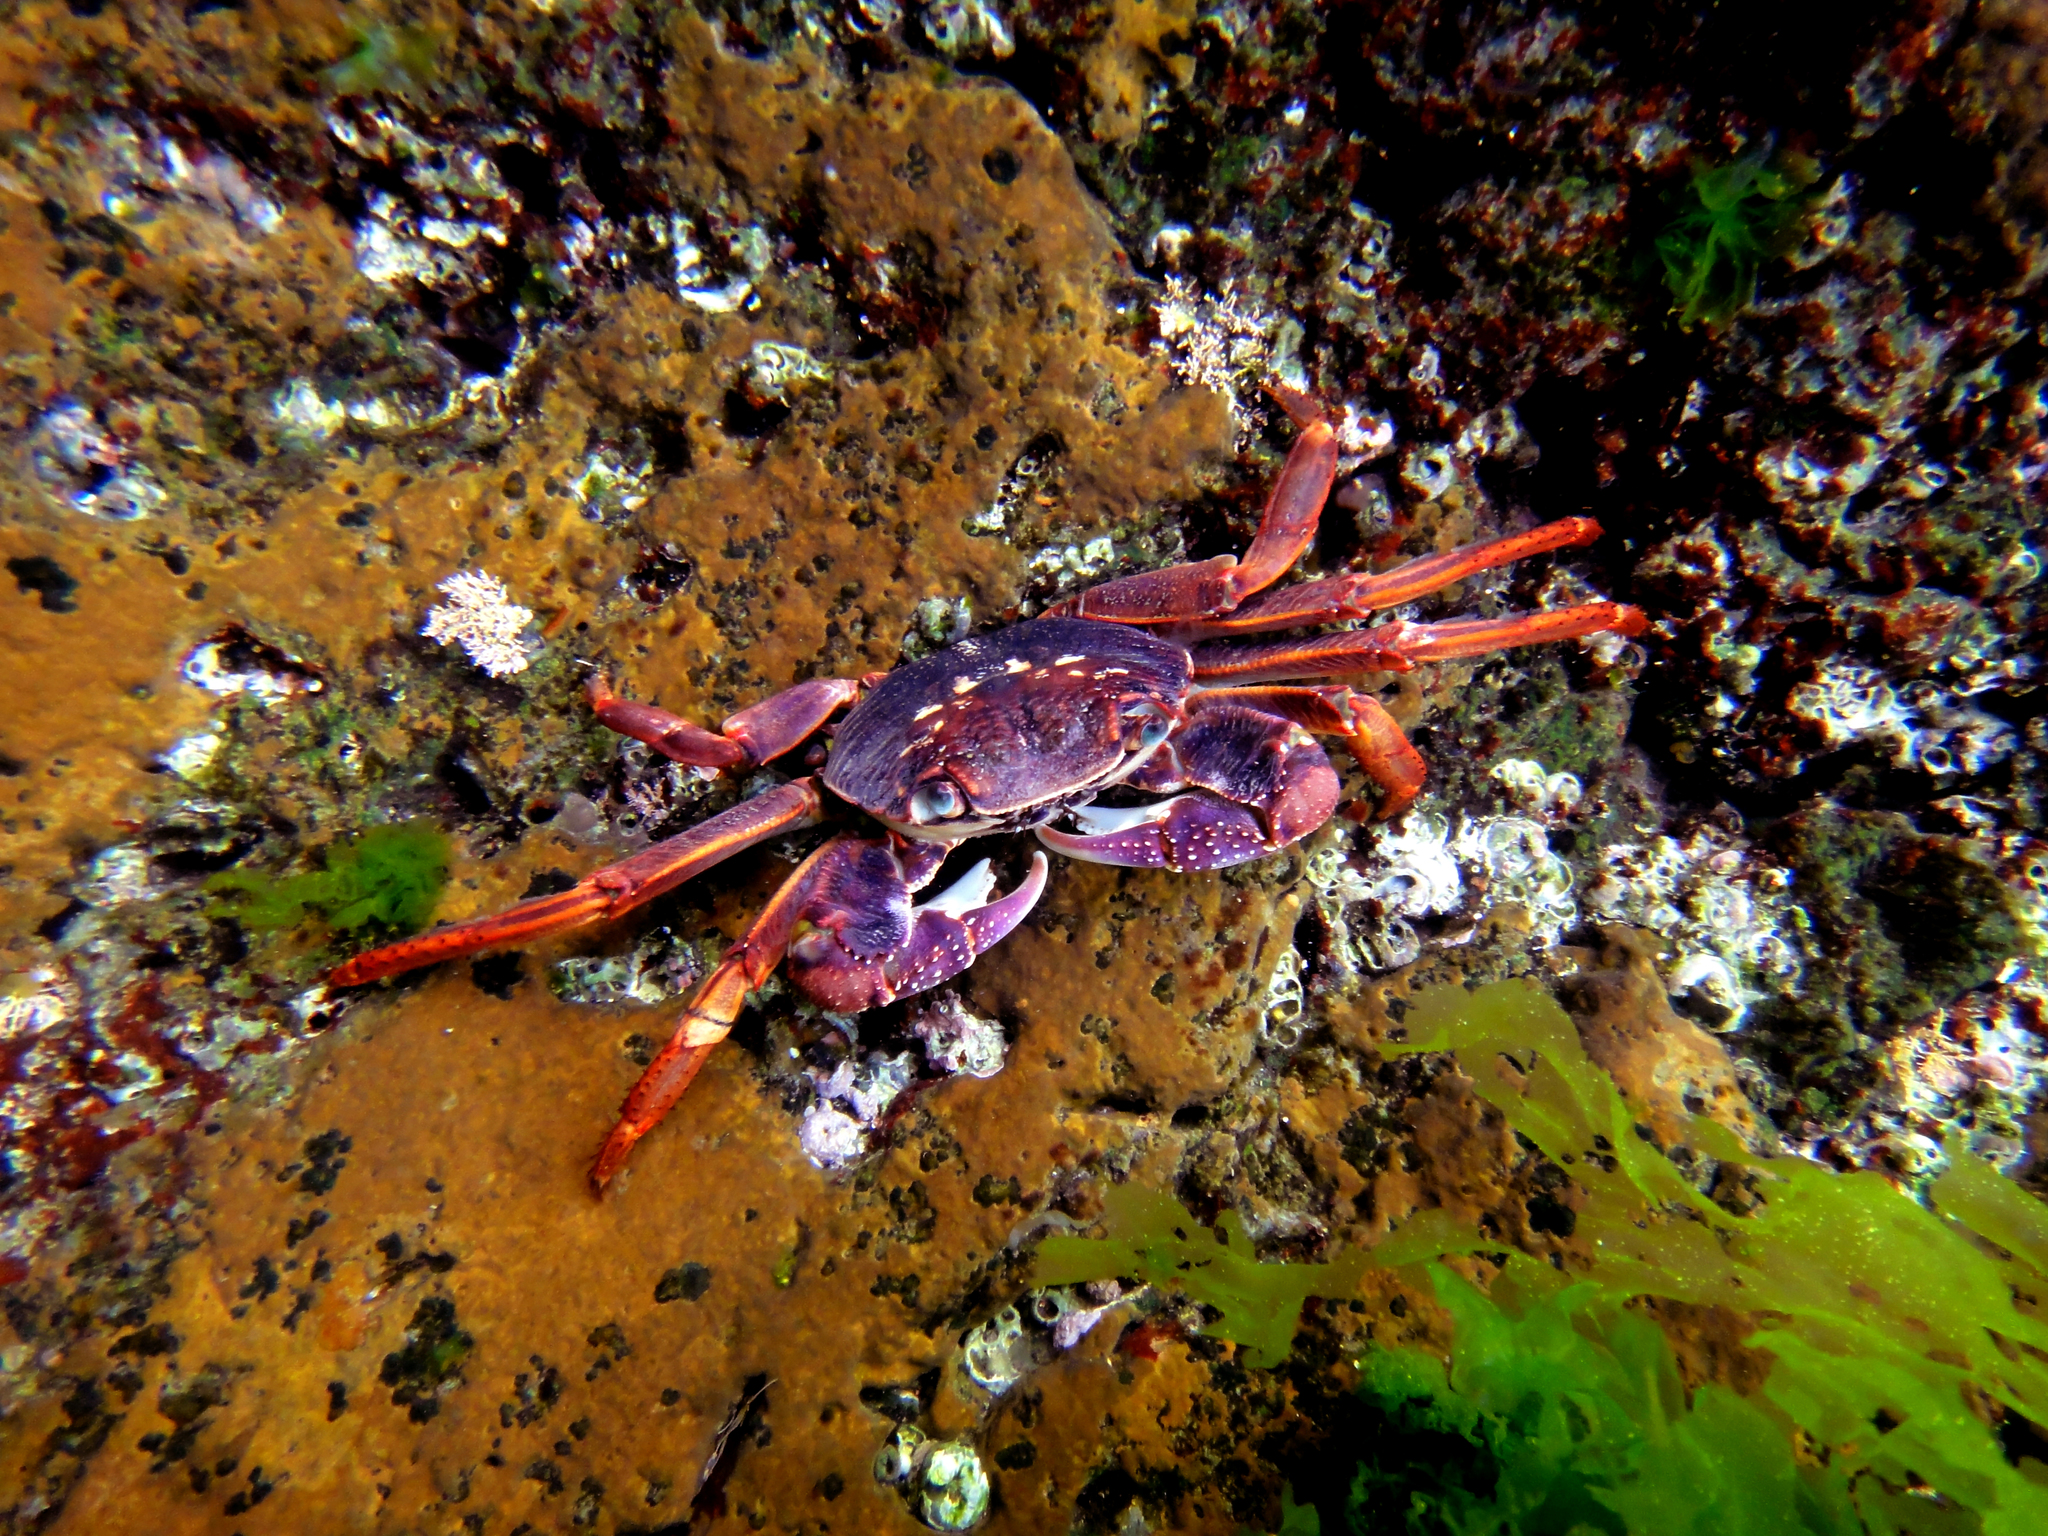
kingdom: Animalia
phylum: Arthropoda
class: Malacostraca
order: Decapoda
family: Grapsidae
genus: Leptograpsus
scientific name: Leptograpsus variegatus
